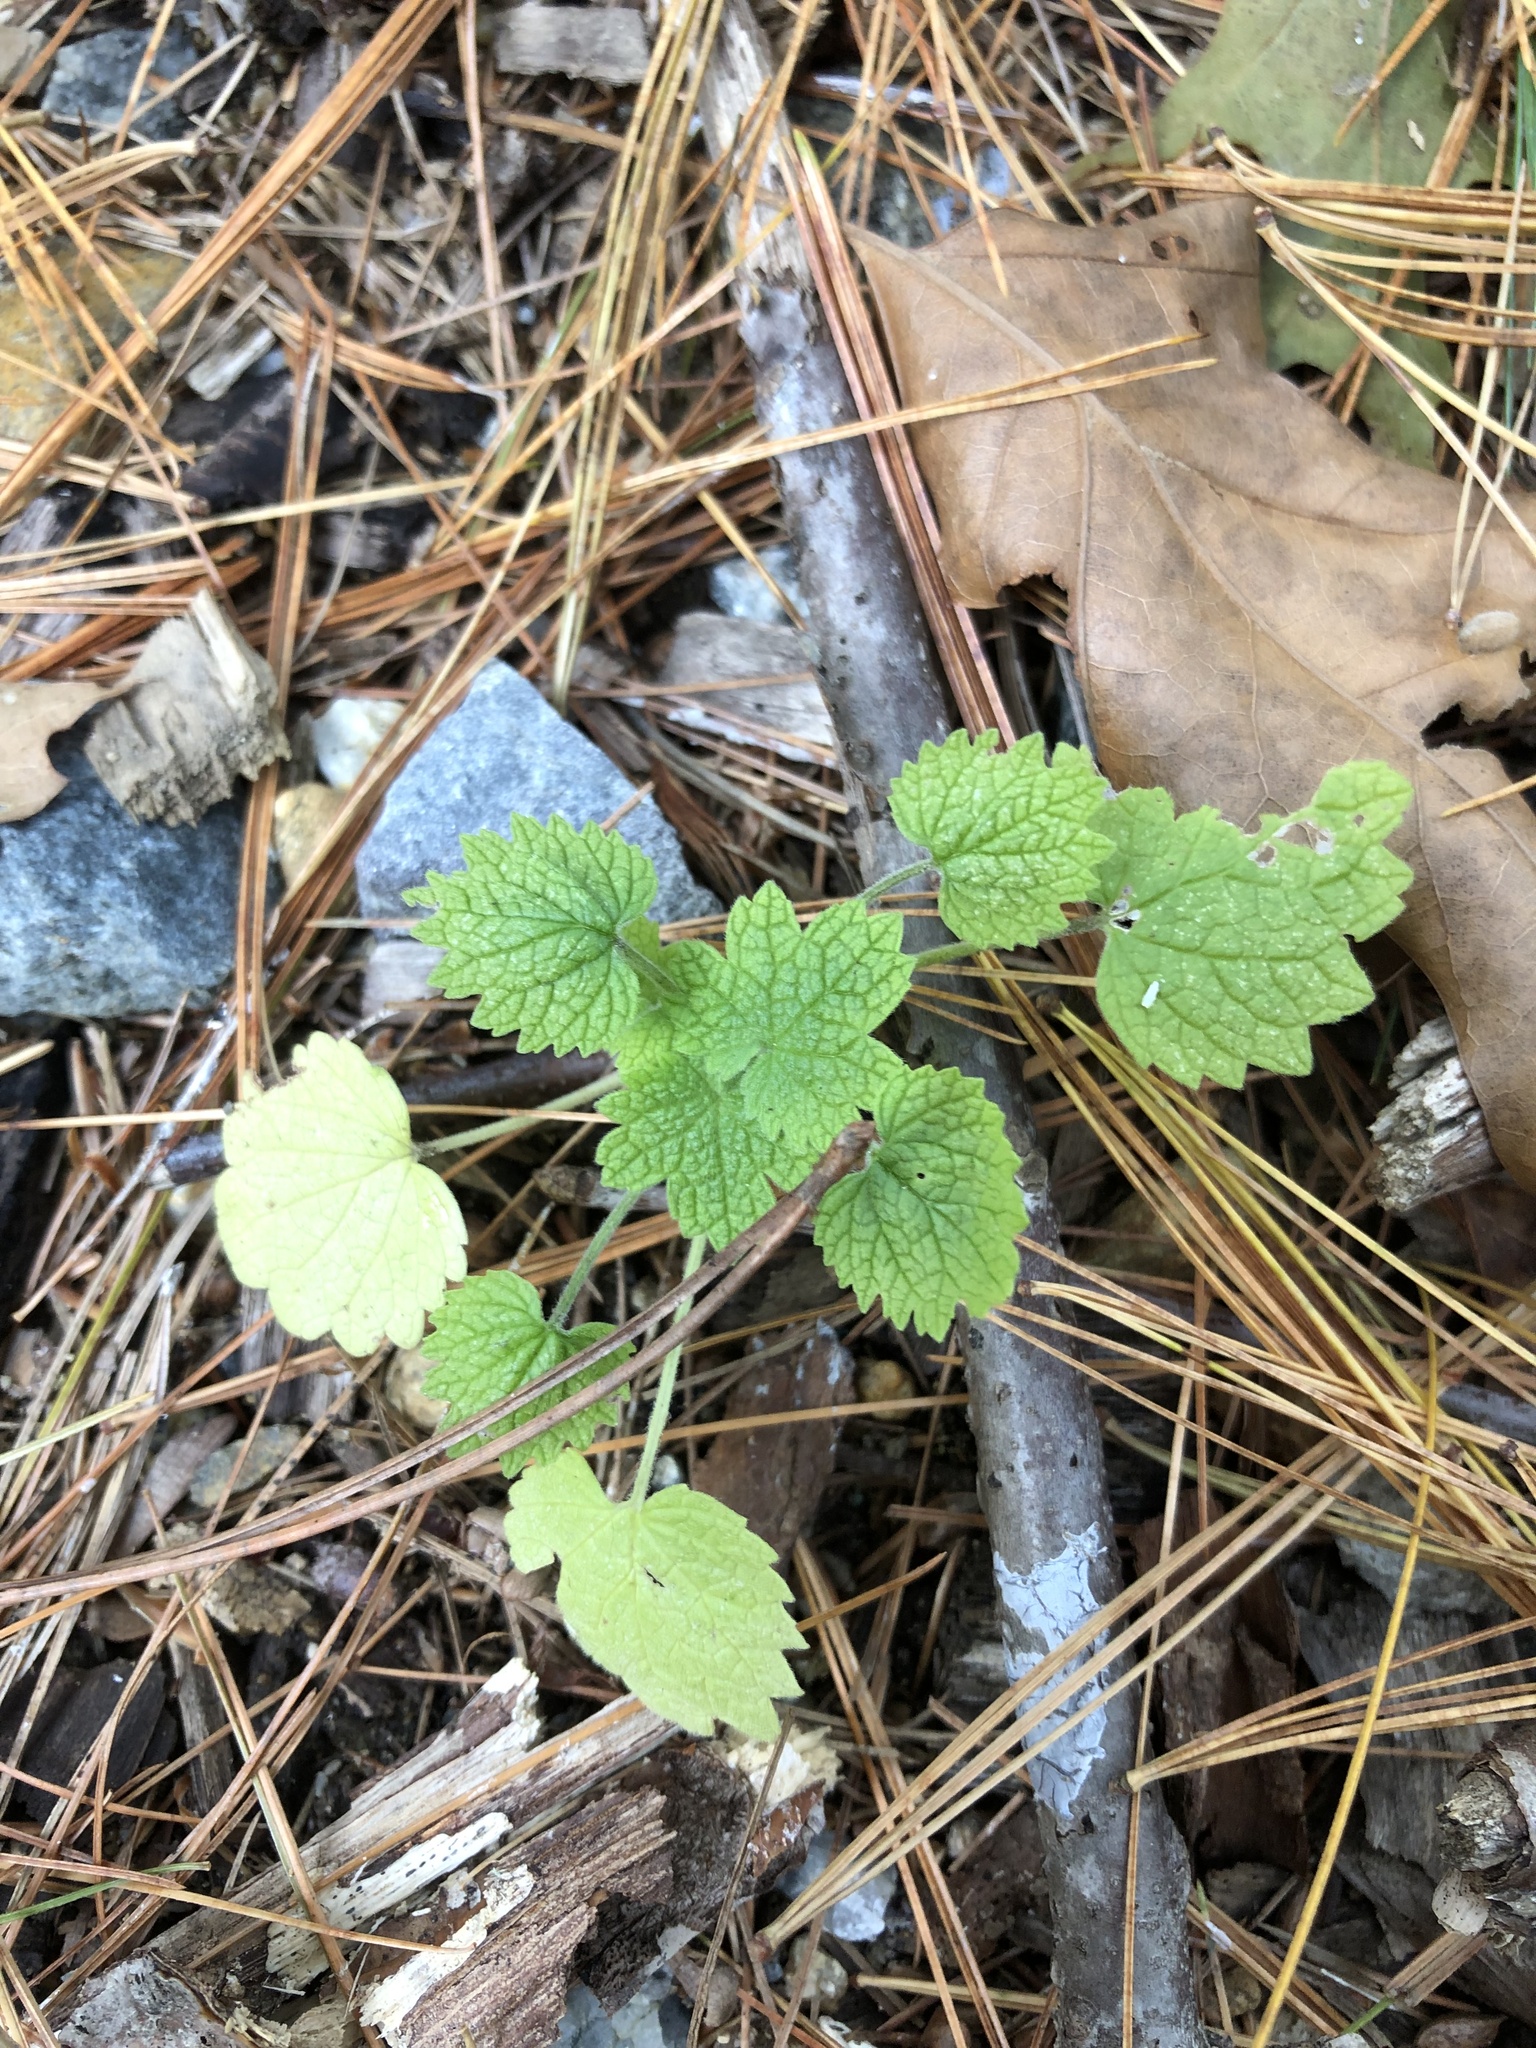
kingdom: Plantae
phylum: Tracheophyta
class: Magnoliopsida
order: Lamiales
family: Lamiaceae
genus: Leonurus
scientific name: Leonurus cardiaca
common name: Motherwort
